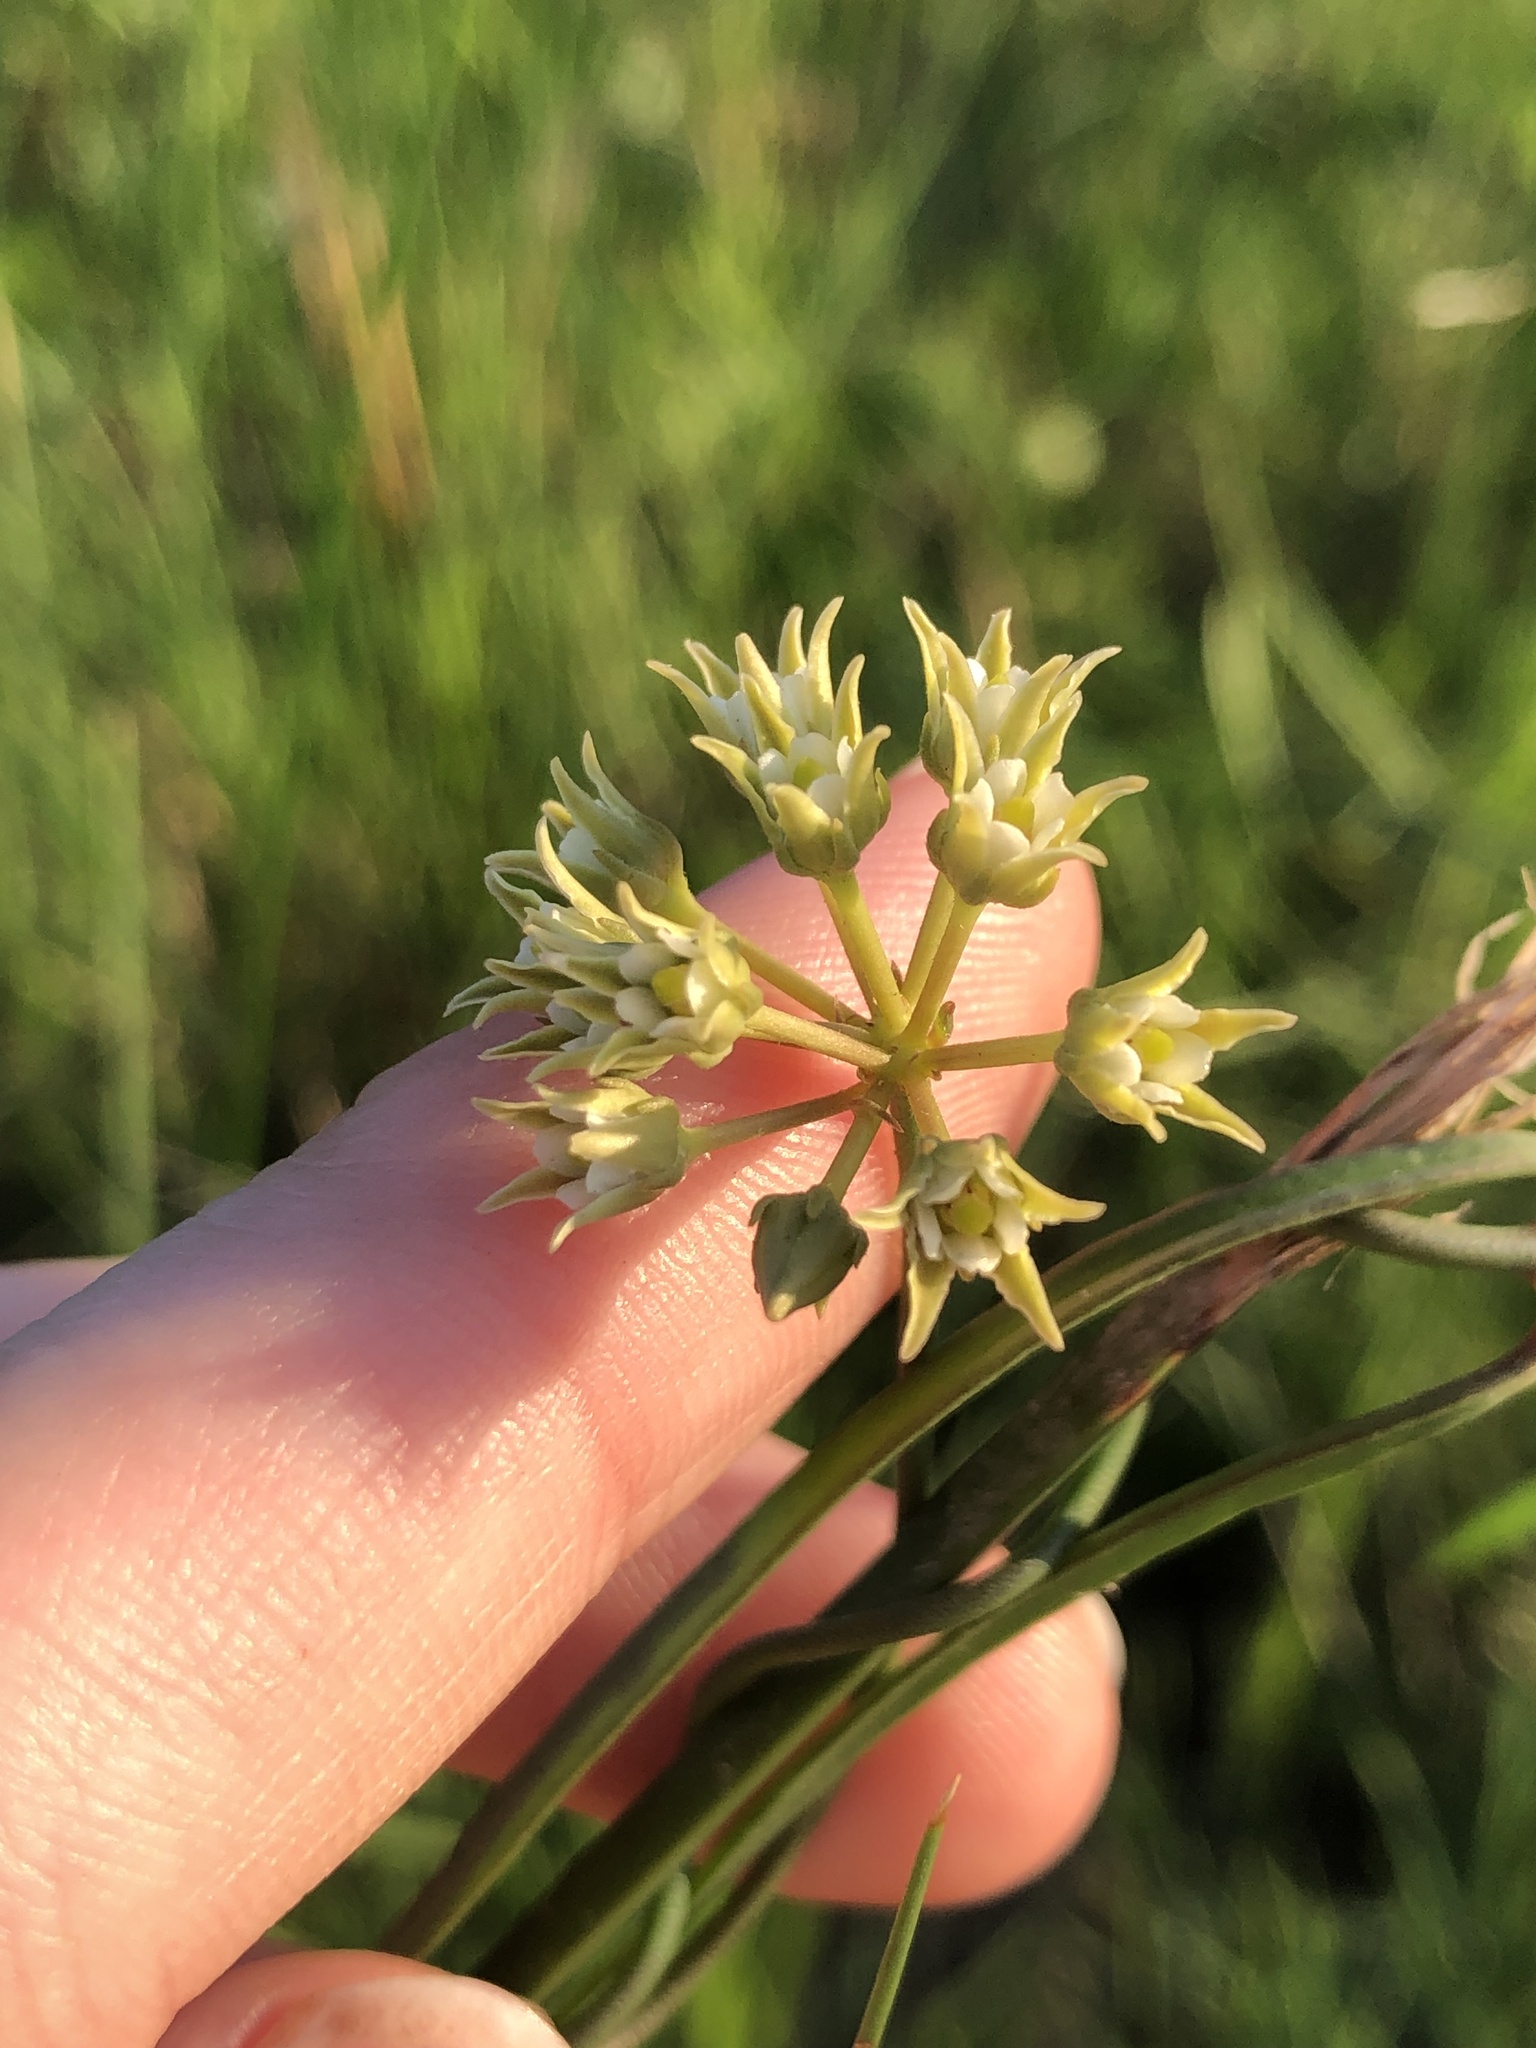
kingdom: Plantae
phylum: Tracheophyta
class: Magnoliopsida
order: Gentianales
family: Apocynaceae
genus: Pattalias
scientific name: Pattalias
